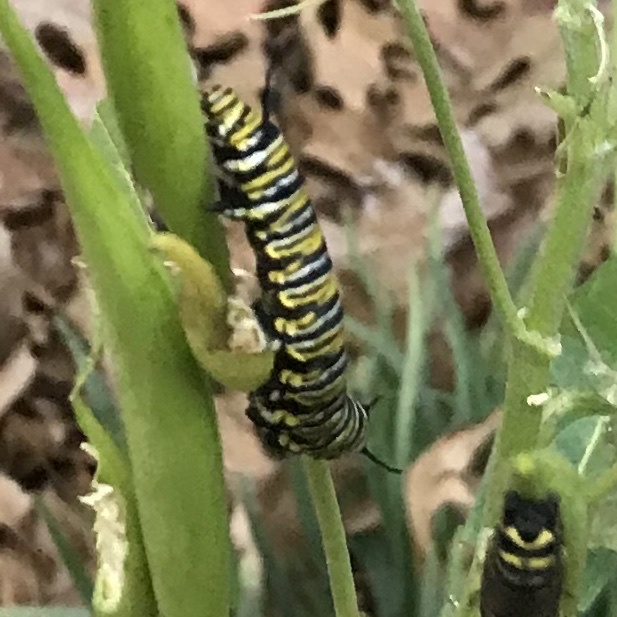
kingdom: Animalia
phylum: Arthropoda
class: Insecta
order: Lepidoptera
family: Nymphalidae
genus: Danaus
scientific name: Danaus plexippus
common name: Monarch
